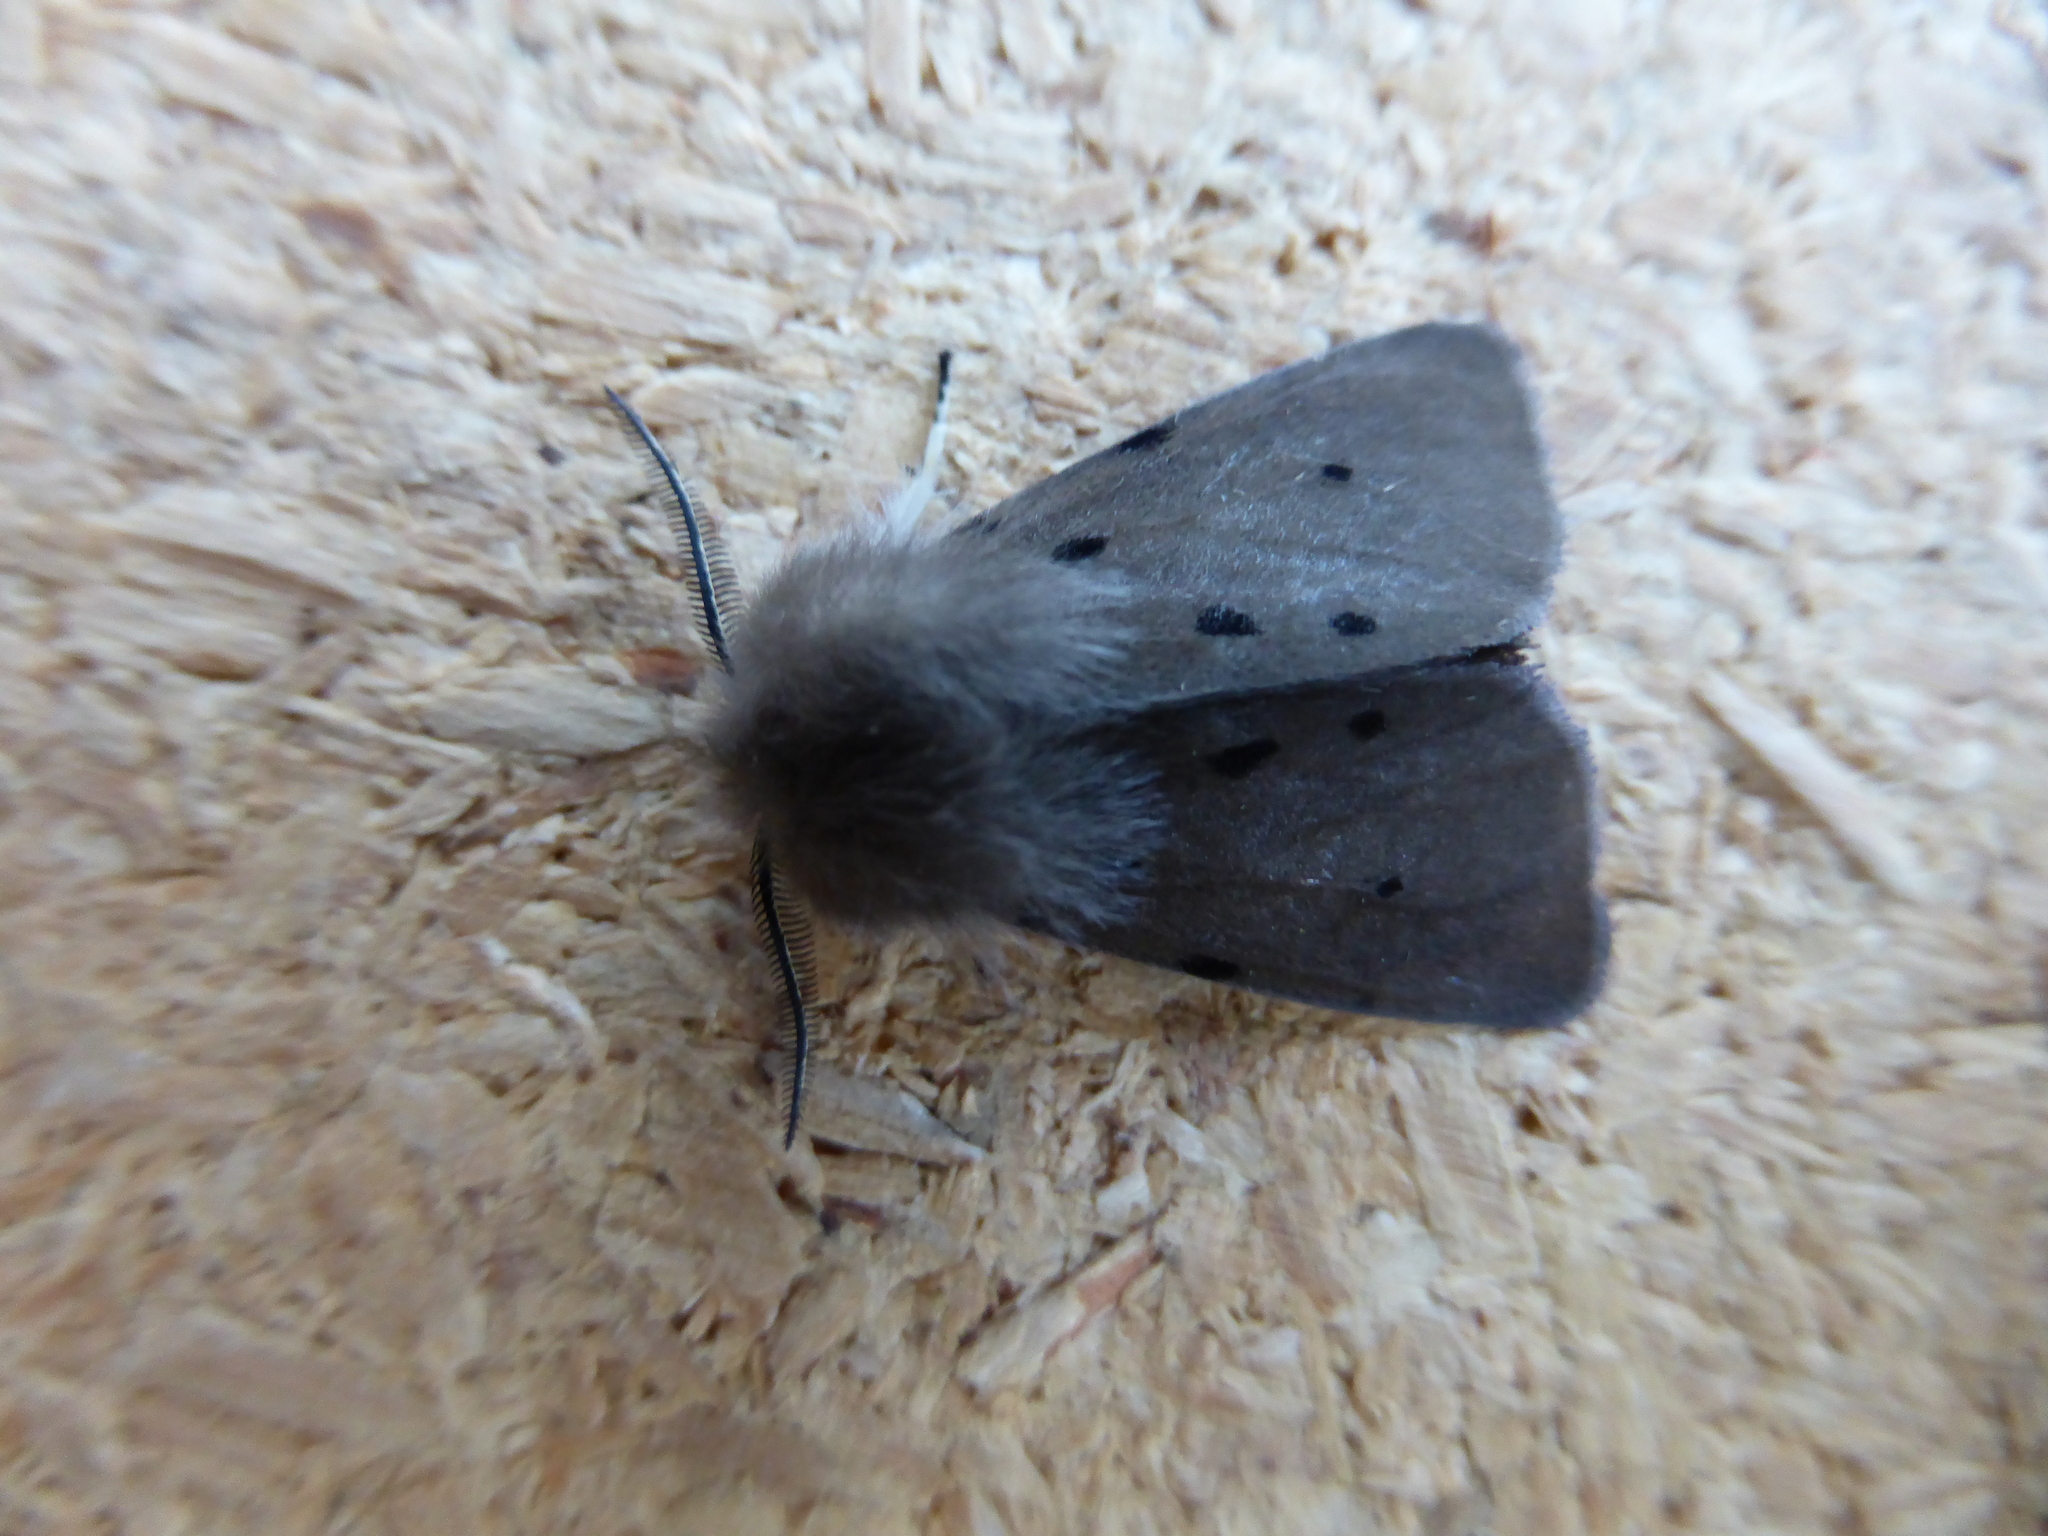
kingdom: Animalia
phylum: Arthropoda
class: Insecta
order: Lepidoptera
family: Erebidae
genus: Diaphora
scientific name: Diaphora mendica
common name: Muslin moth
